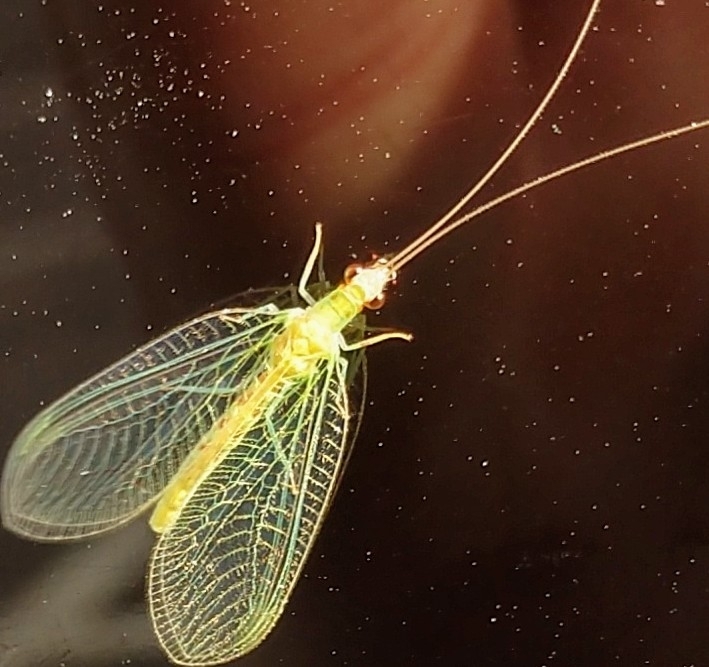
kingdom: Animalia
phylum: Arthropoda
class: Insecta
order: Neuroptera
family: Chrysopidae
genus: Chrysopa
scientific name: Chrysopa quadripunctata
